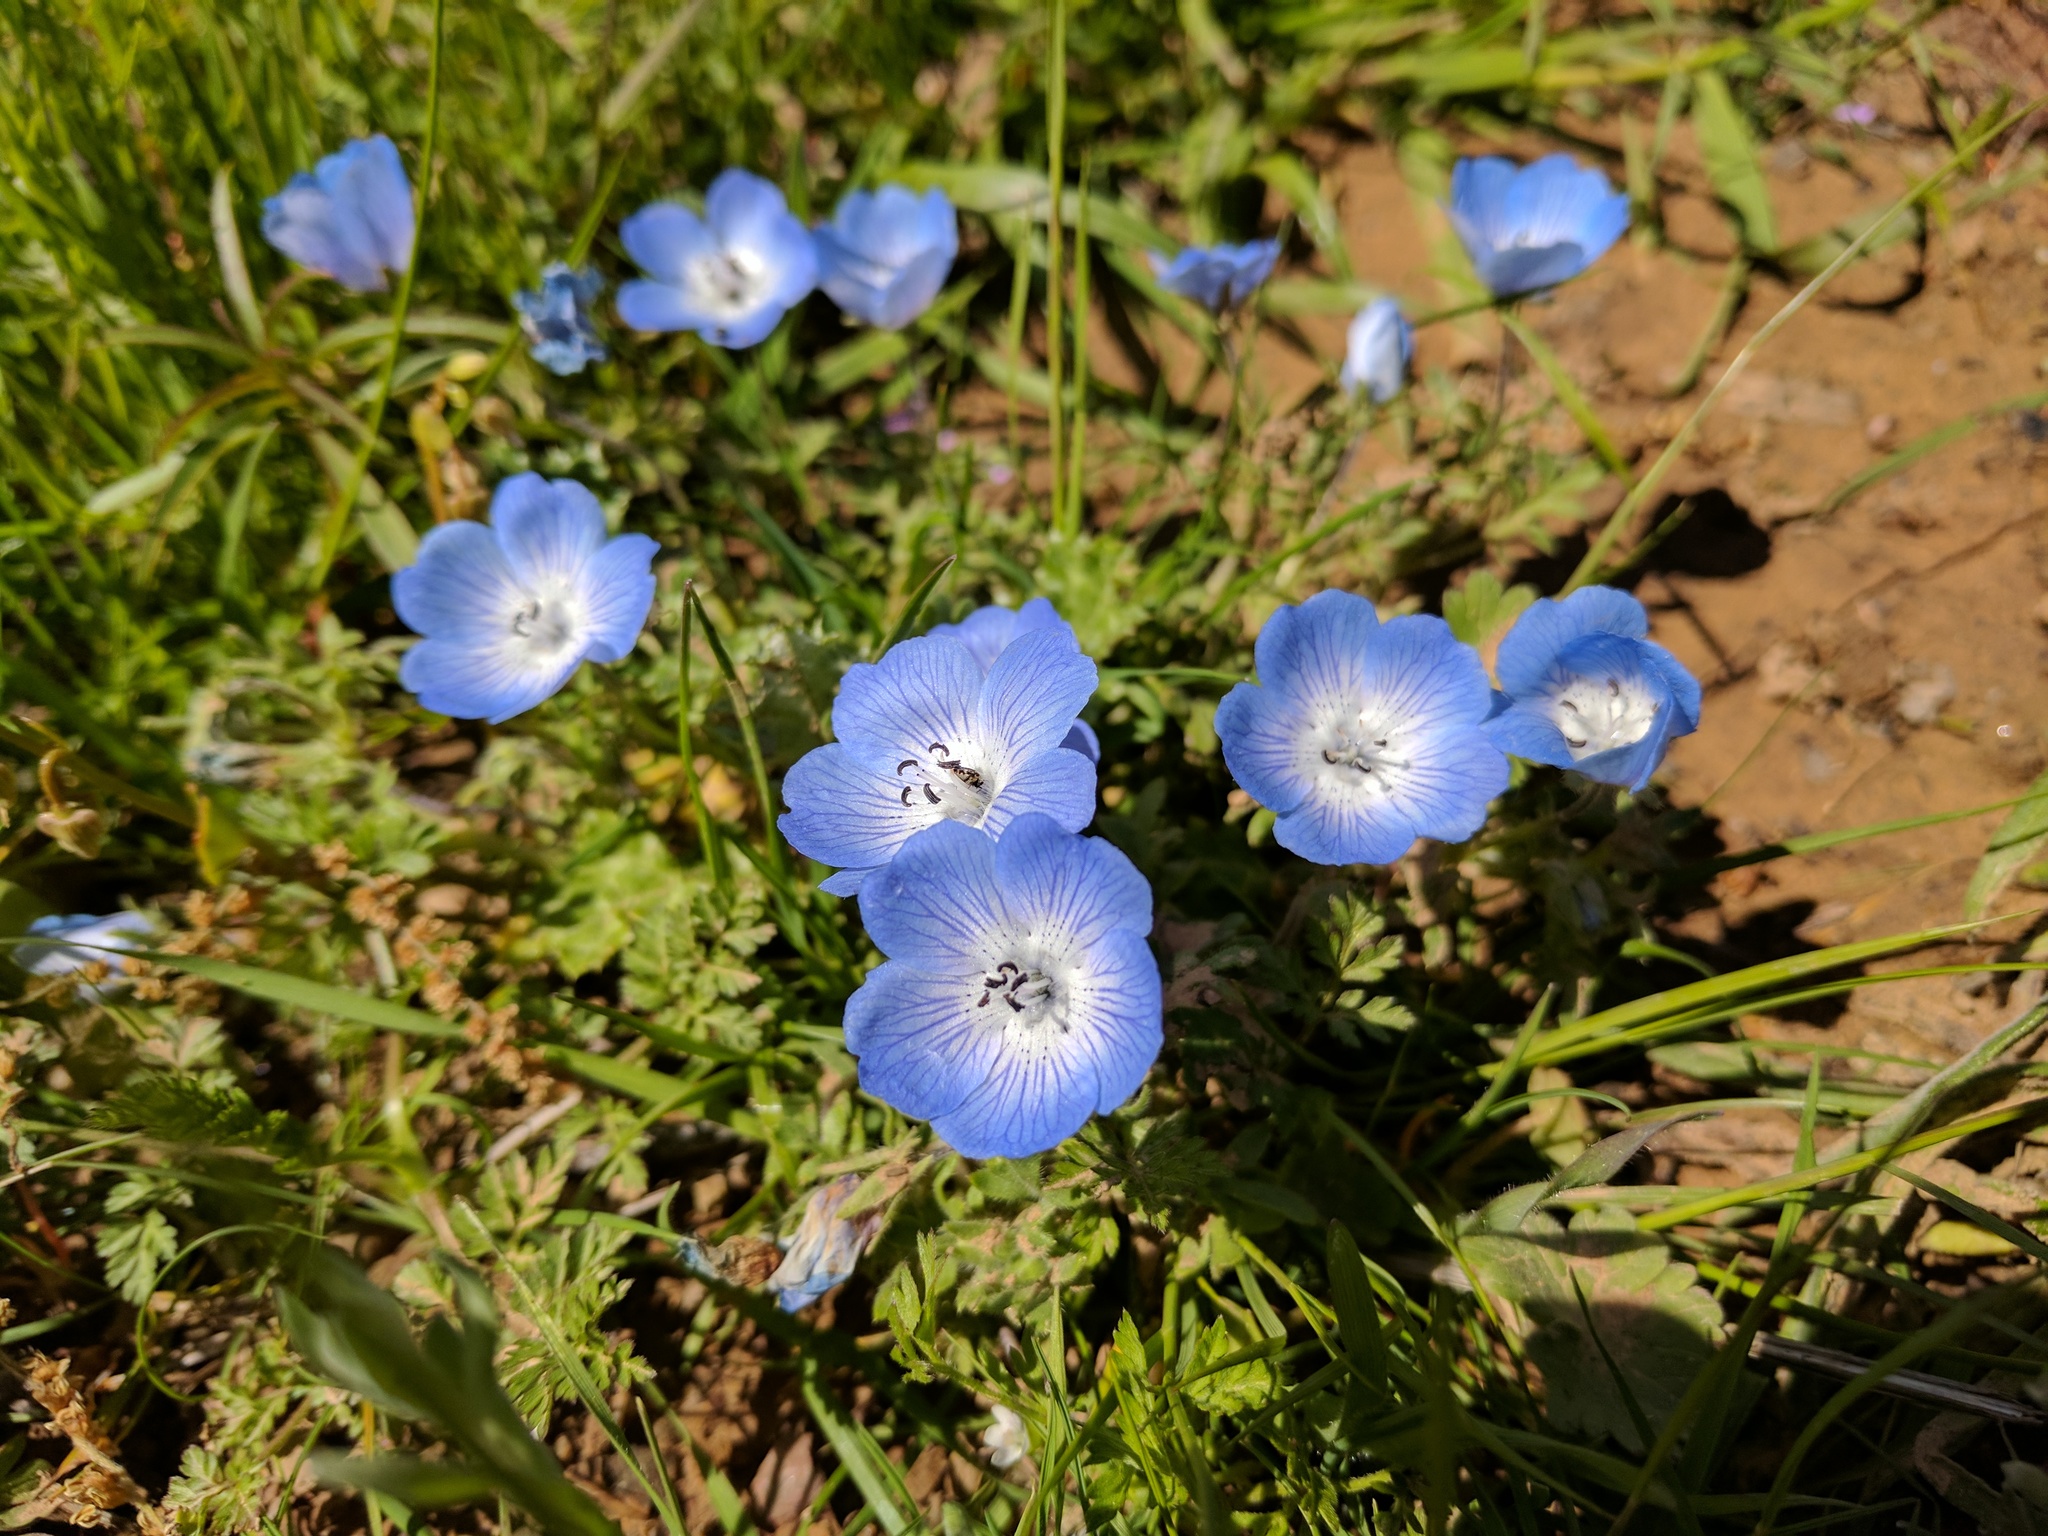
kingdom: Plantae
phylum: Tracheophyta
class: Magnoliopsida
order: Boraginales
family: Hydrophyllaceae
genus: Nemophila
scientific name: Nemophila menziesii
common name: Baby's-blue-eyes
